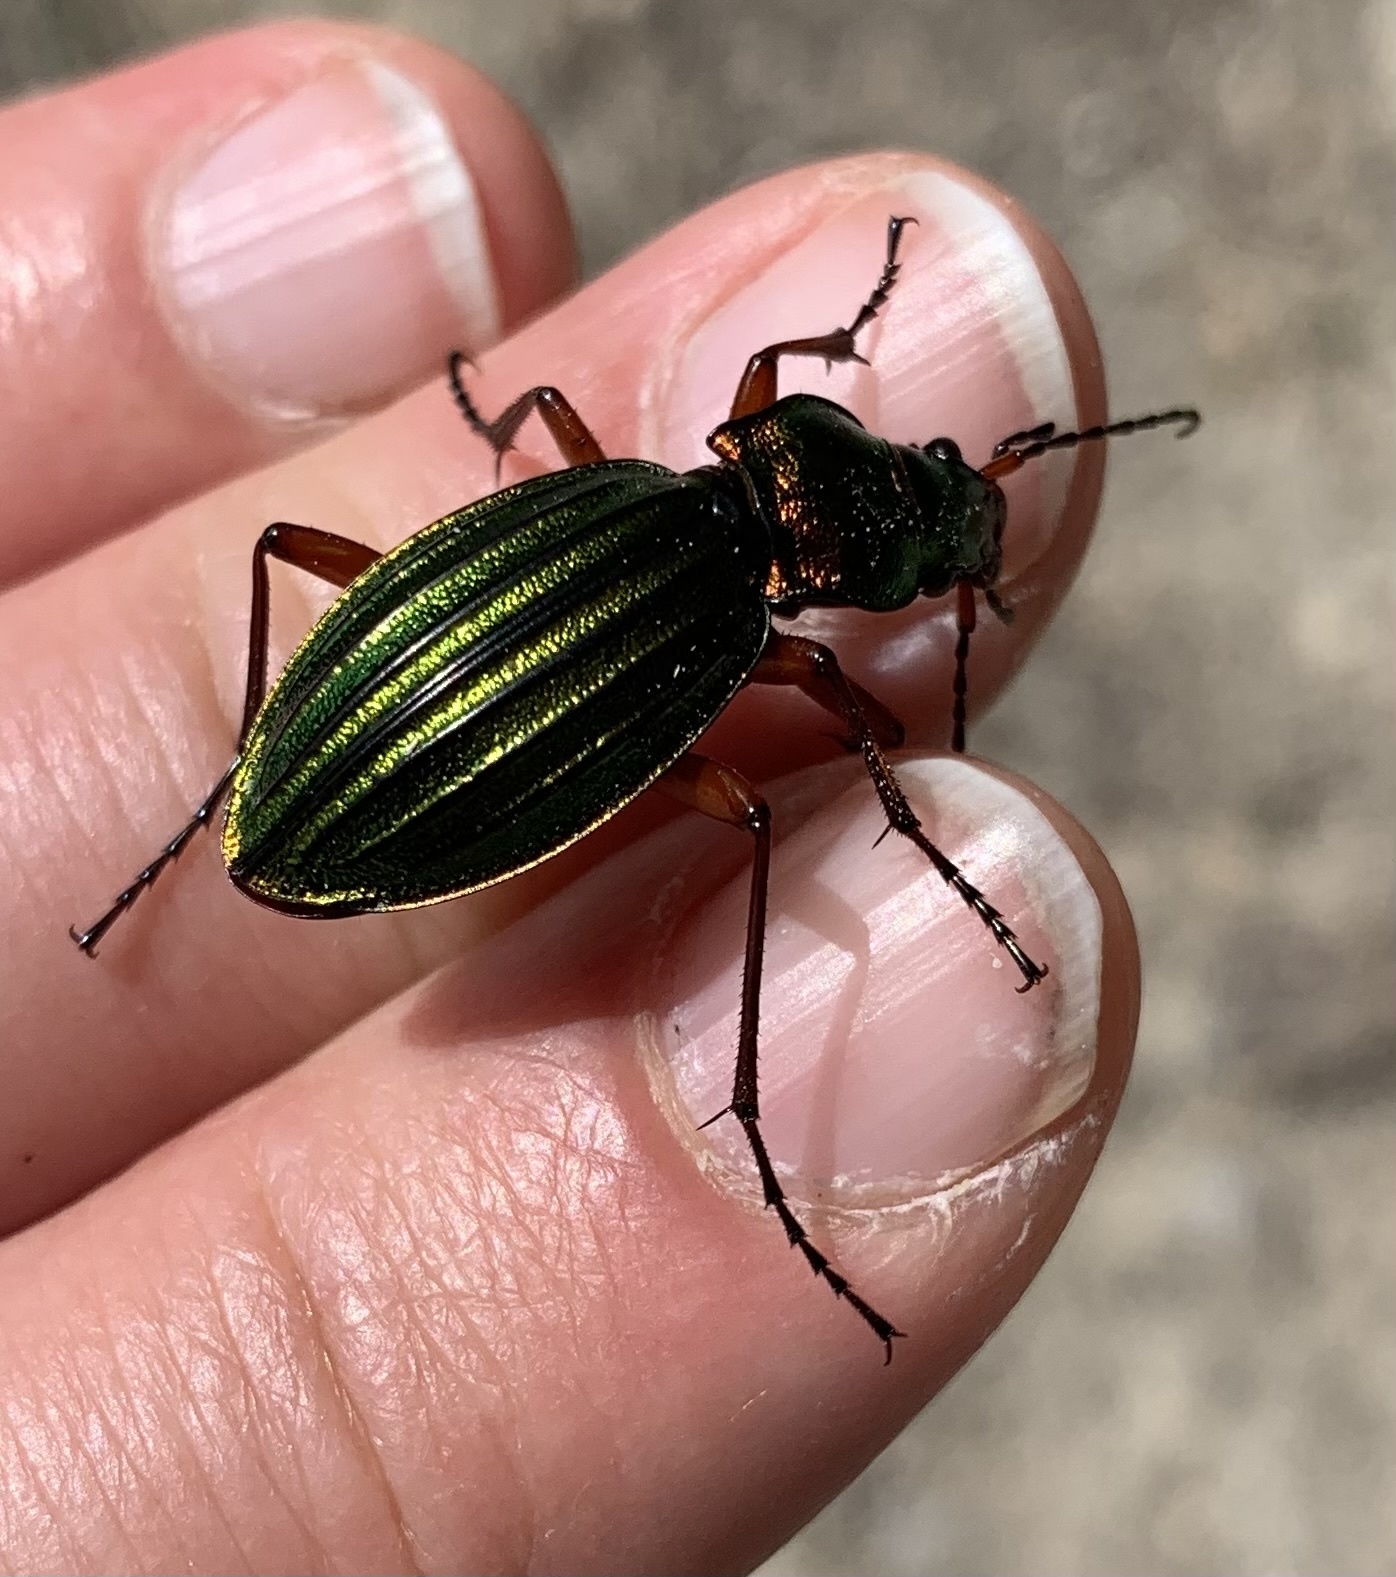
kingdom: Animalia
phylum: Arthropoda
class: Insecta
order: Coleoptera
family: Carabidae
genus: Carabus
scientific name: Carabus auronitens
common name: Carabus auronitens
